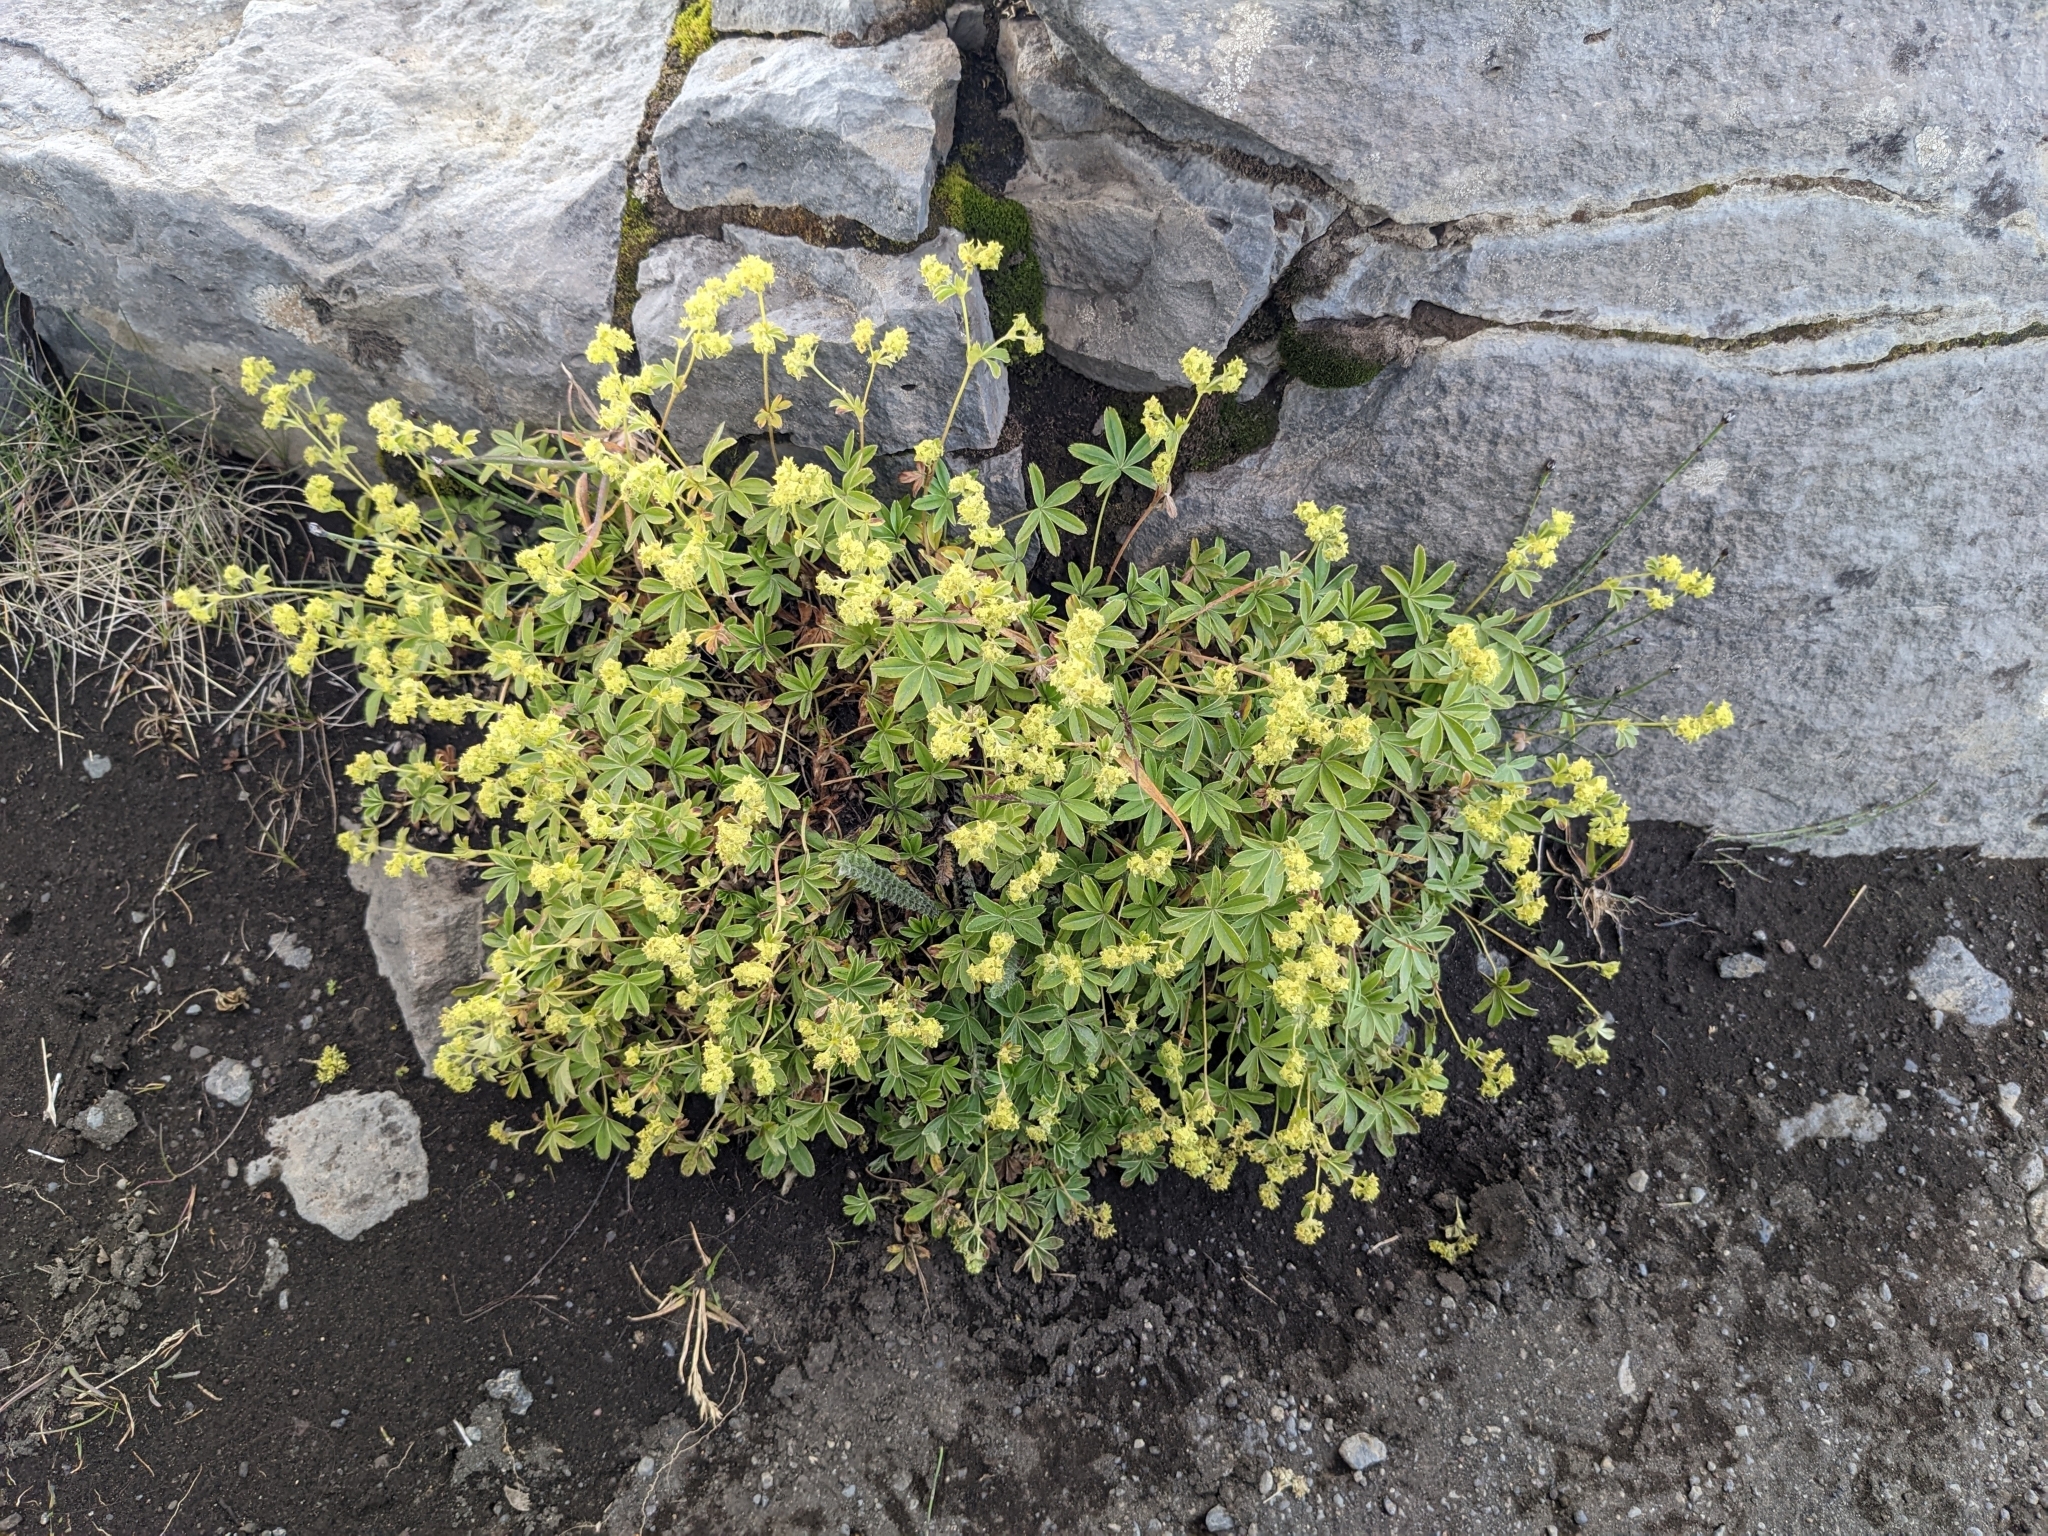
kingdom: Plantae
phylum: Tracheophyta
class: Magnoliopsida
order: Rosales
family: Rosaceae
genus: Alchemilla
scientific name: Alchemilla alpina
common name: Alpine lady's-mantle
